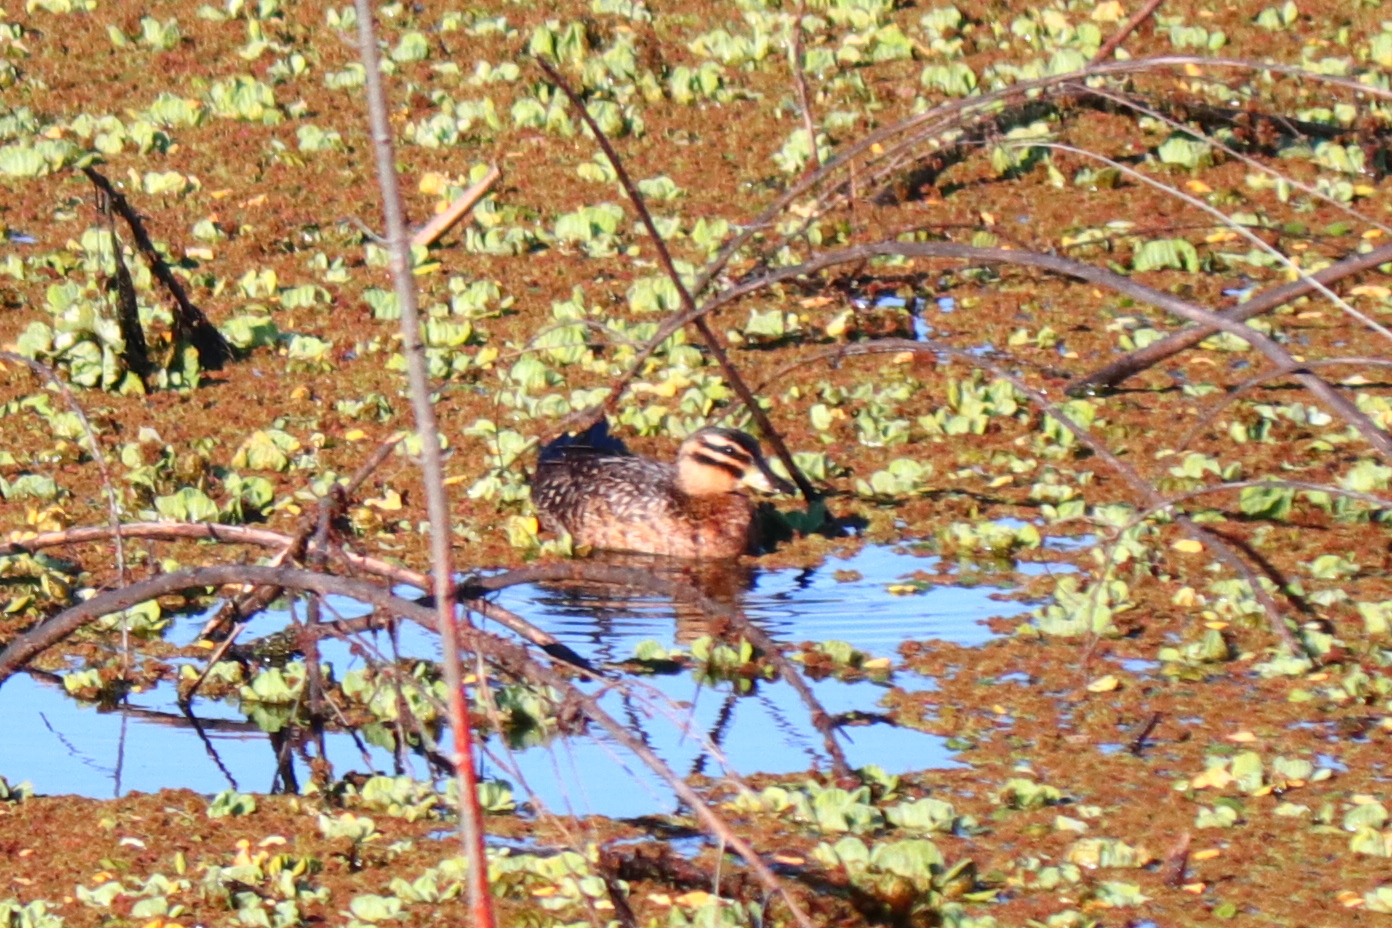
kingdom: Animalia
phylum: Chordata
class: Aves
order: Anseriformes
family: Anatidae
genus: Nomonyx
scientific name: Nomonyx dominicus
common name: Masked duck
